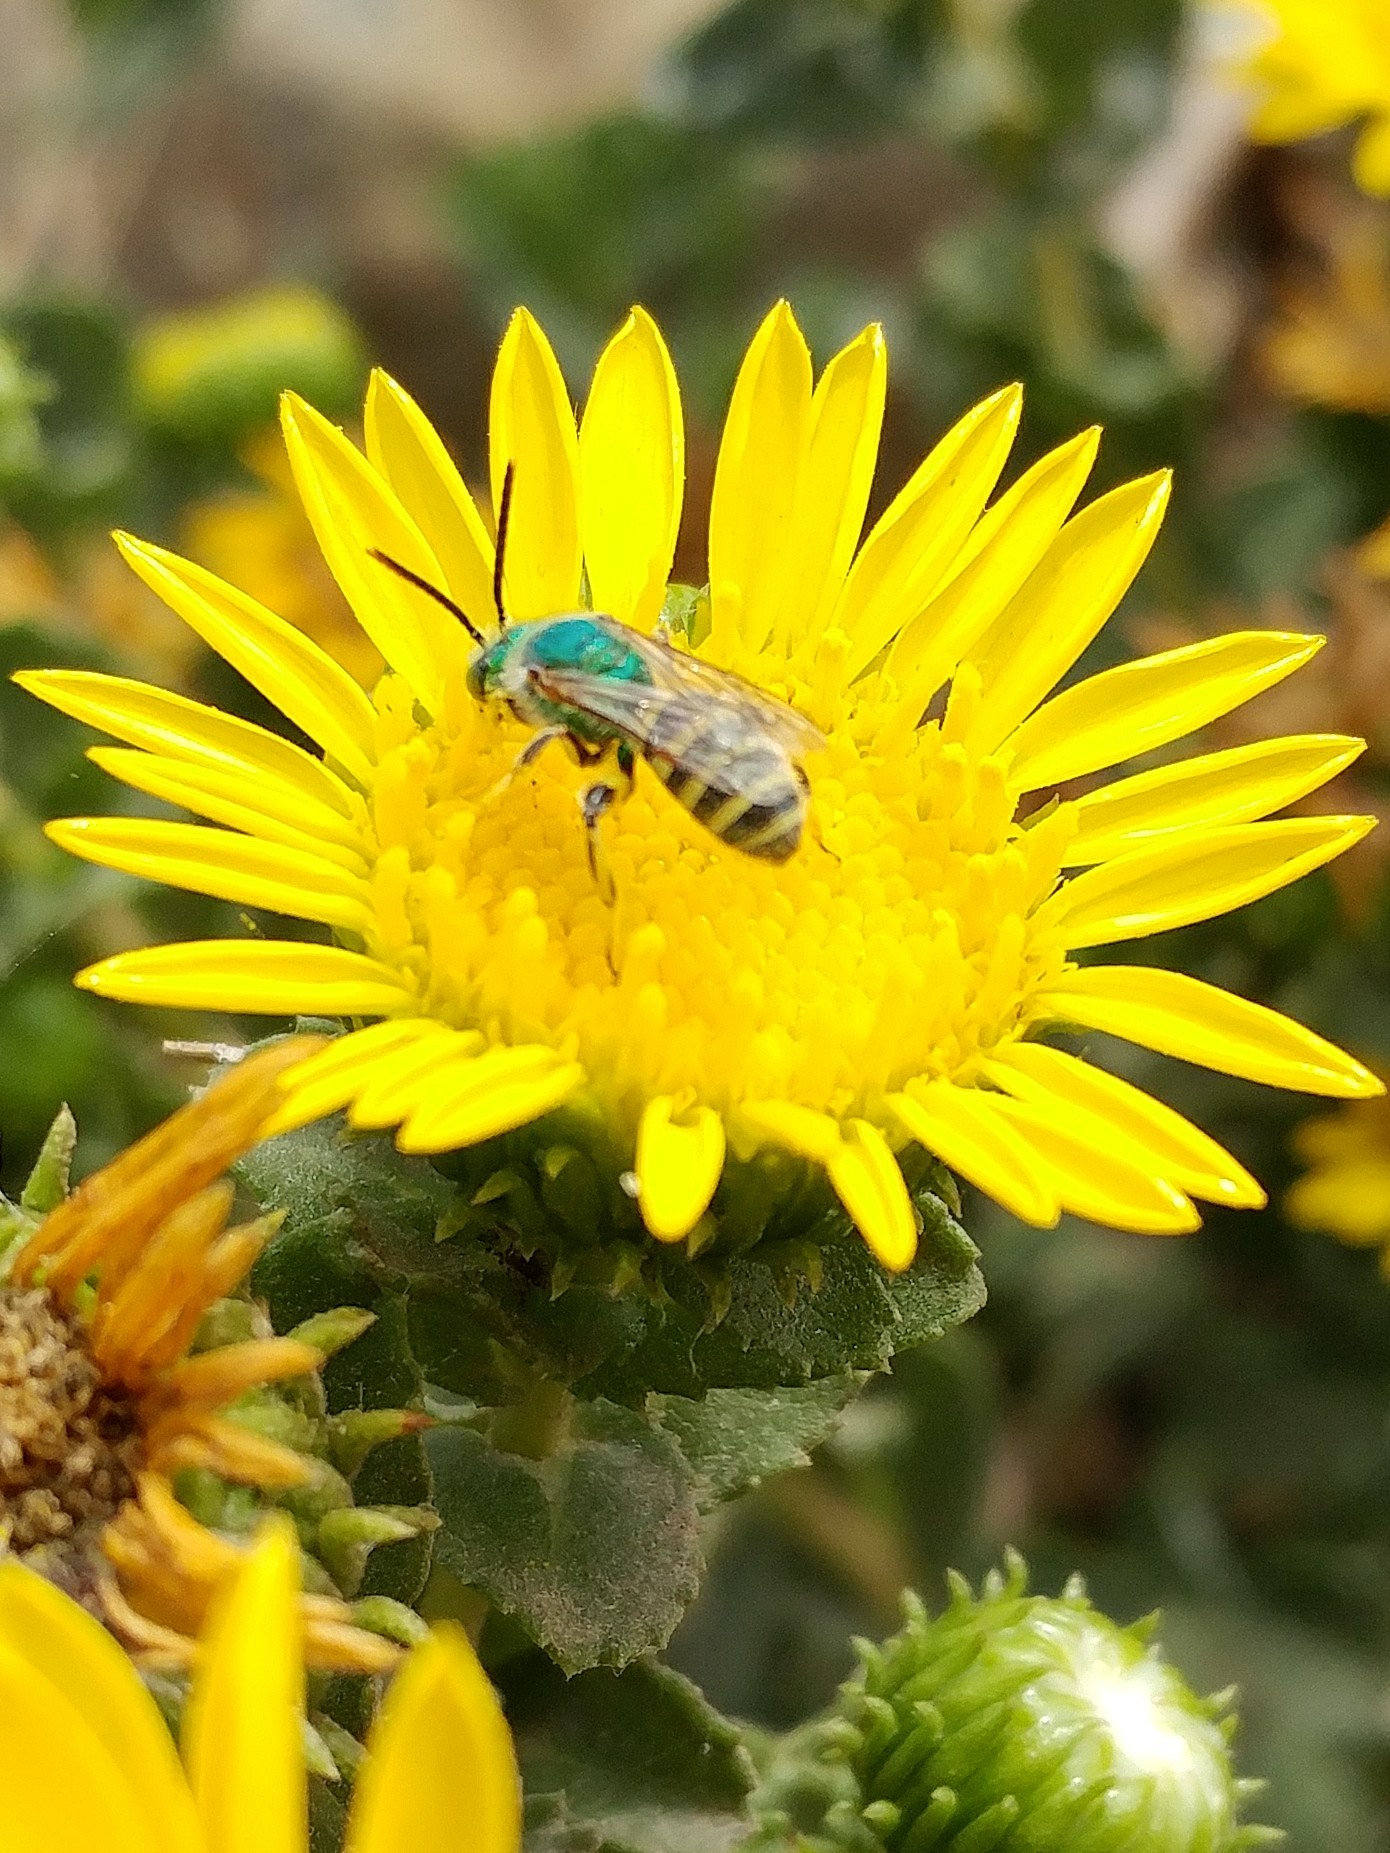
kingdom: Animalia
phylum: Arthropoda
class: Insecta
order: Hymenoptera
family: Halictidae
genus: Agapostemon
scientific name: Agapostemon texanus
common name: Texas striped sweat bee
